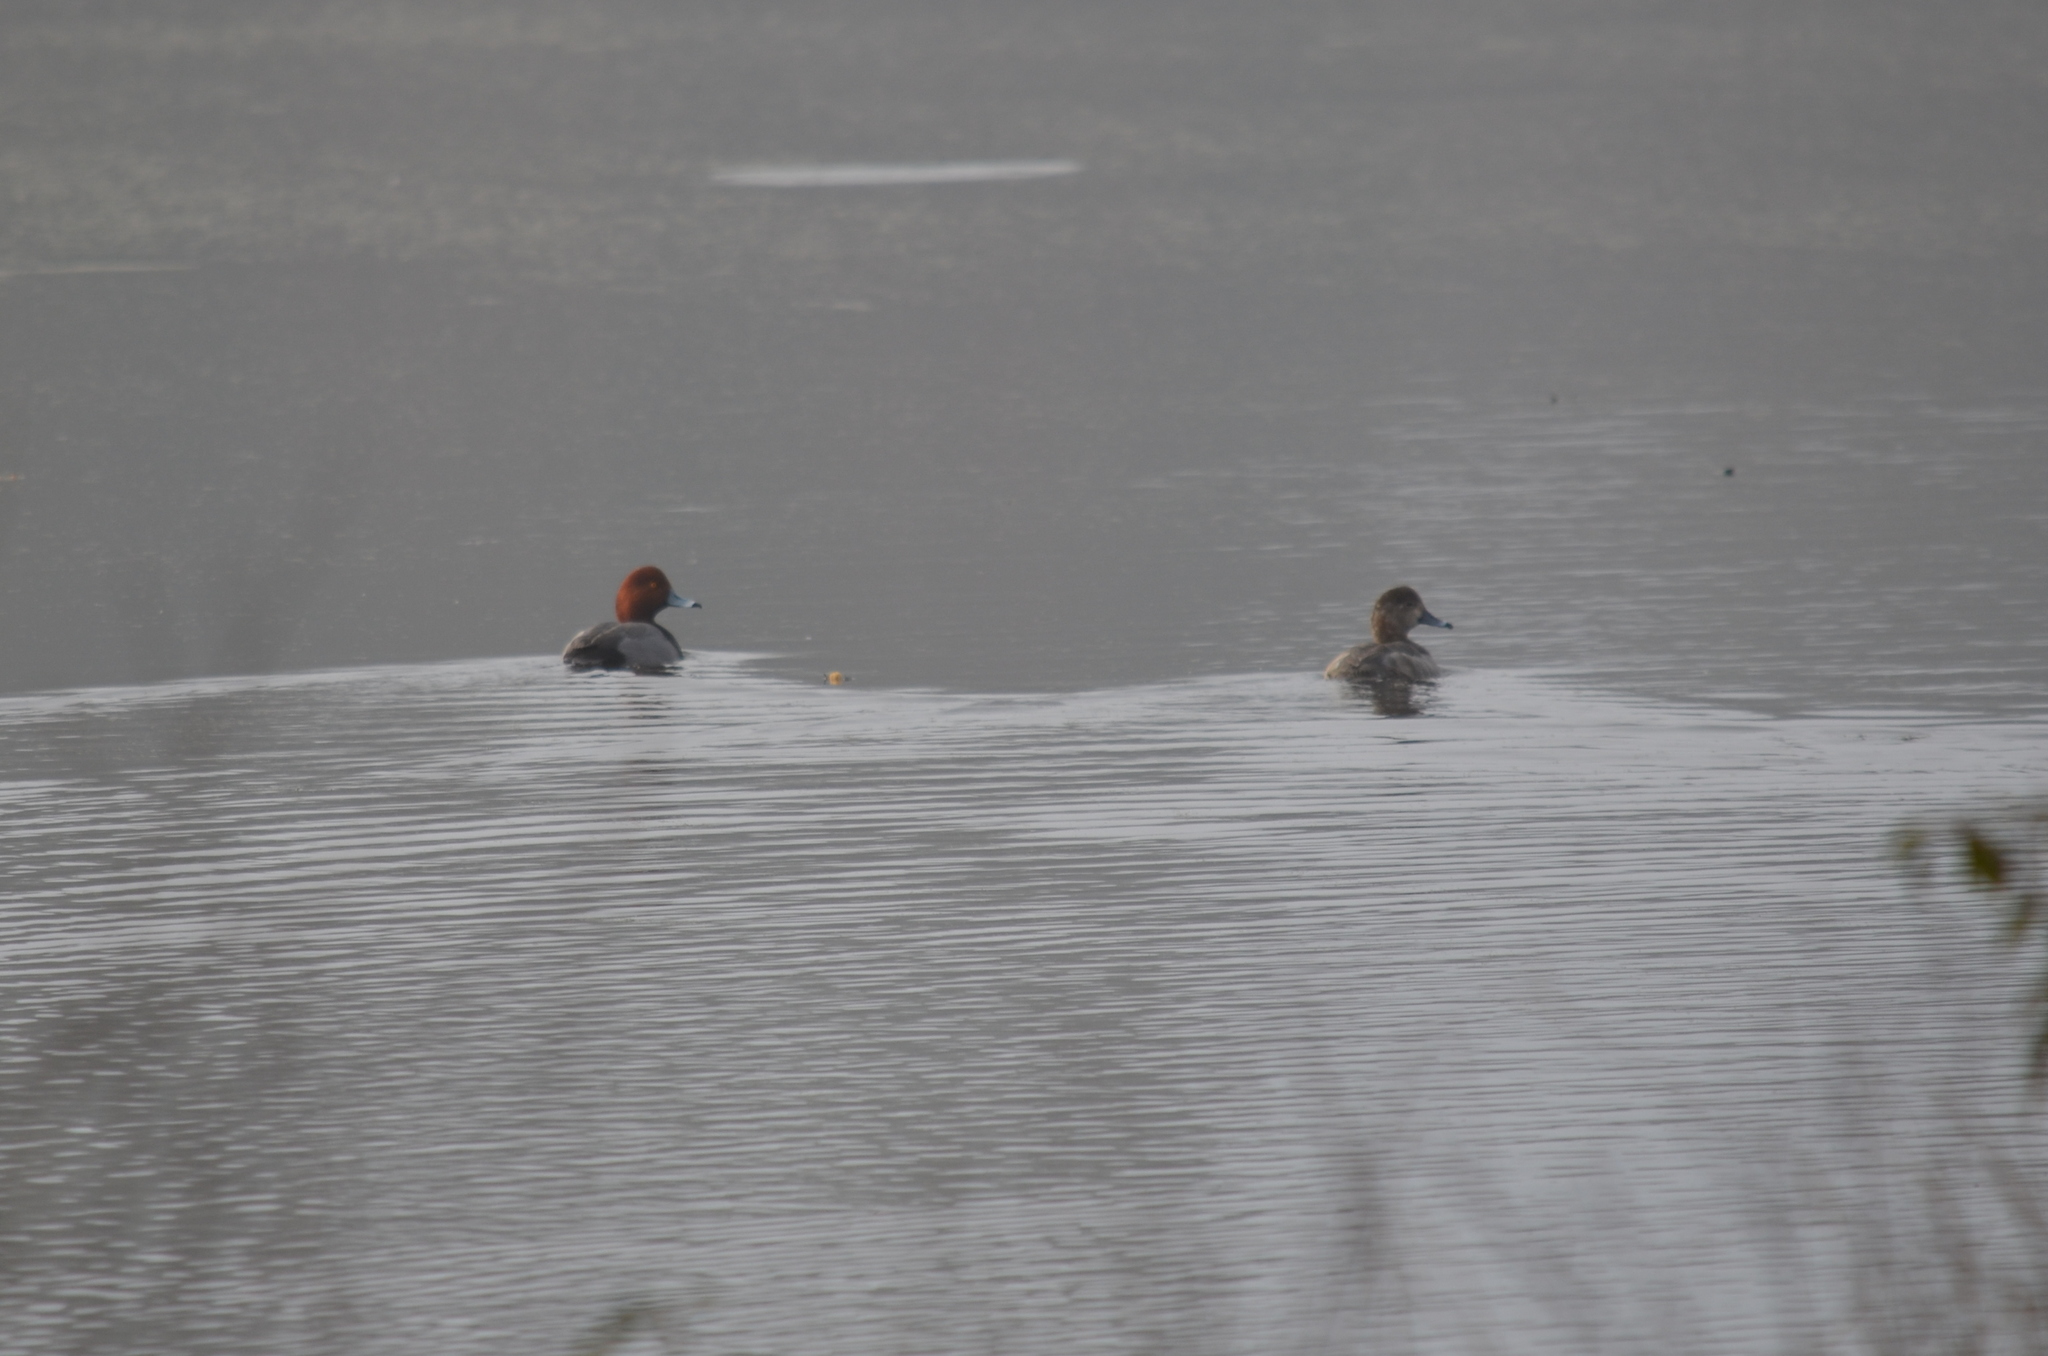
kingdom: Animalia
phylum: Chordata
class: Aves
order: Anseriformes
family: Anatidae
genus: Aythya
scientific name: Aythya americana
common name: Redhead
